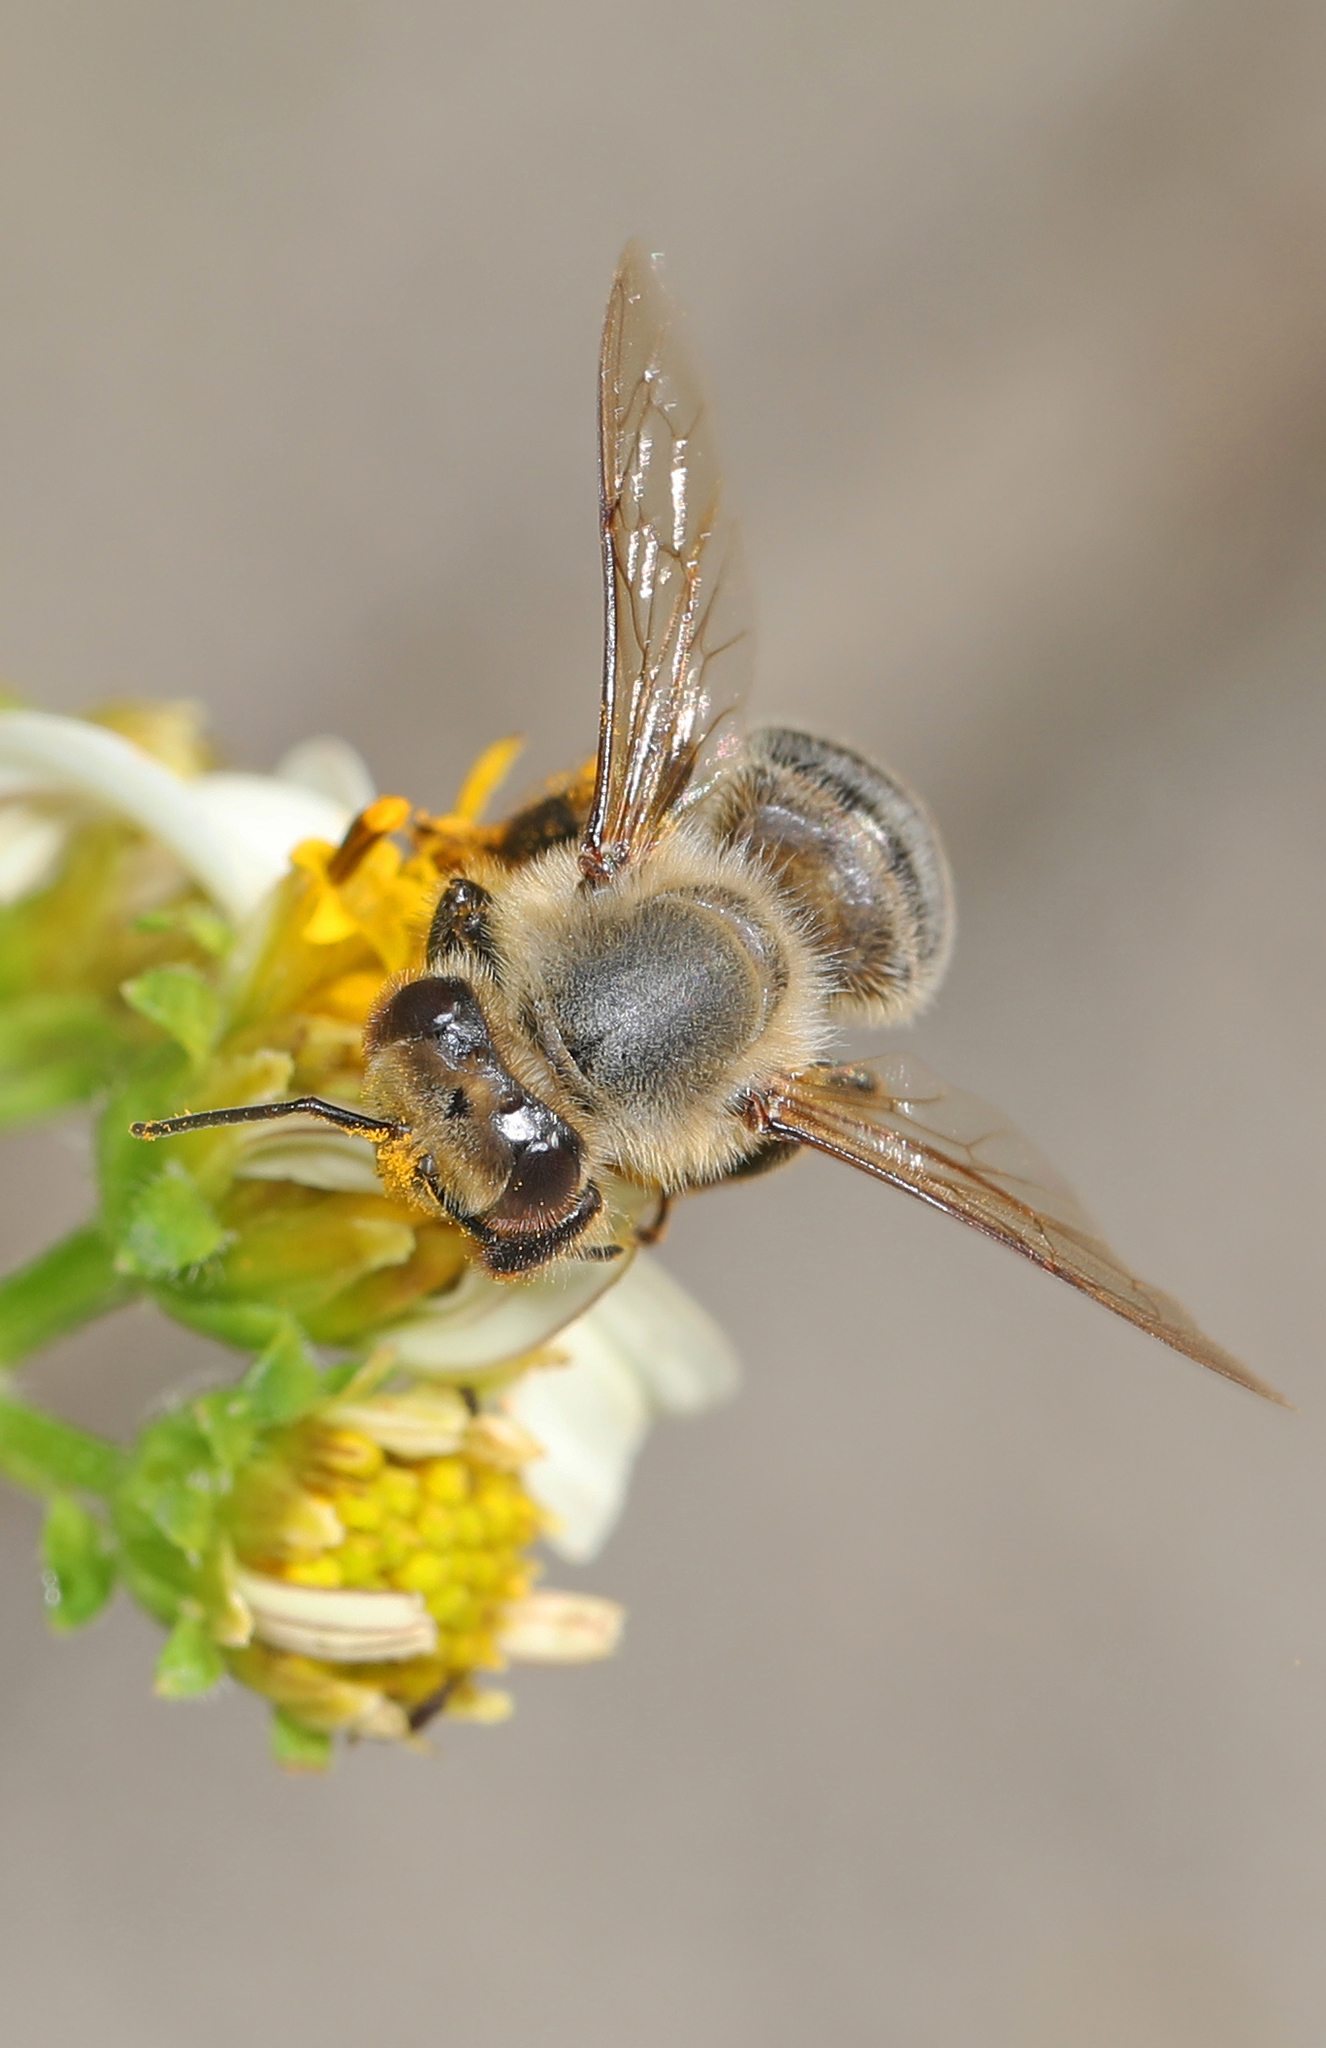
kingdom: Animalia
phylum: Arthropoda
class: Insecta
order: Hymenoptera
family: Apidae
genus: Apis
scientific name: Apis mellifera
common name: Honey bee
